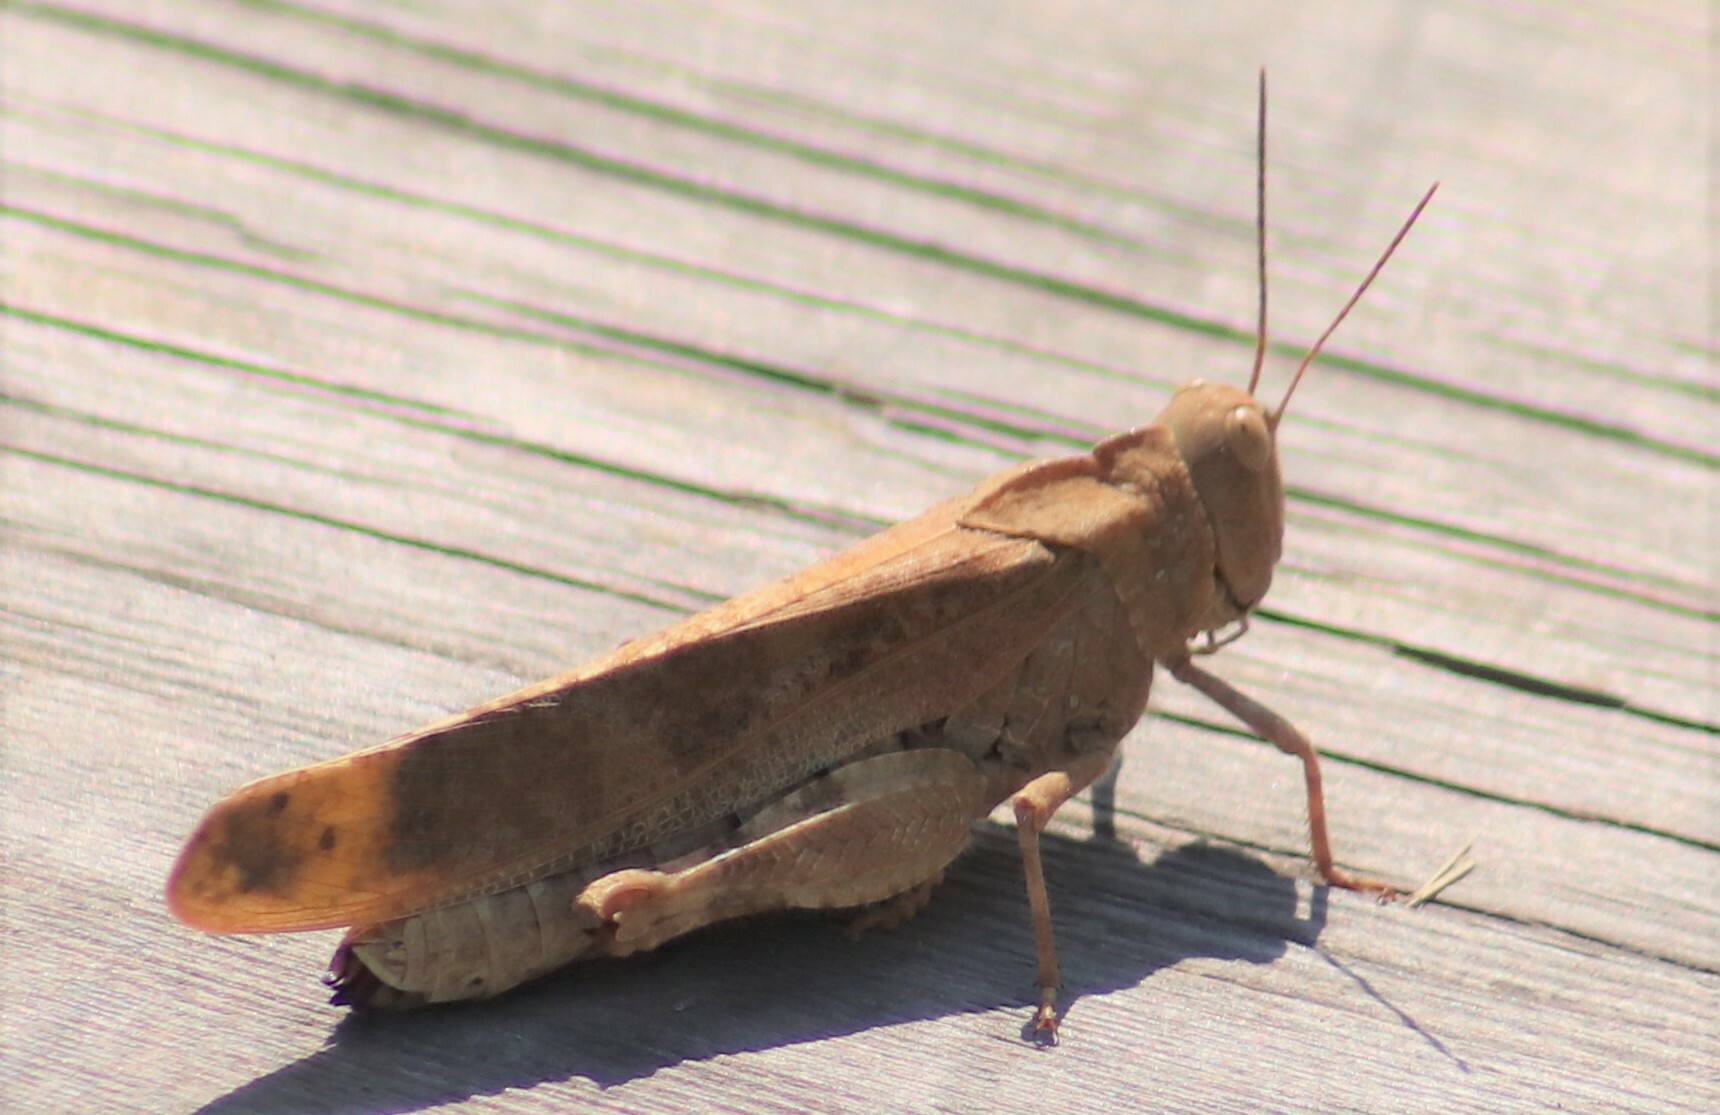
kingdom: Animalia
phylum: Arthropoda
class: Insecta
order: Orthoptera
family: Acrididae
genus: Dissosteira
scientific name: Dissosteira carolina
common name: Carolina grasshopper
